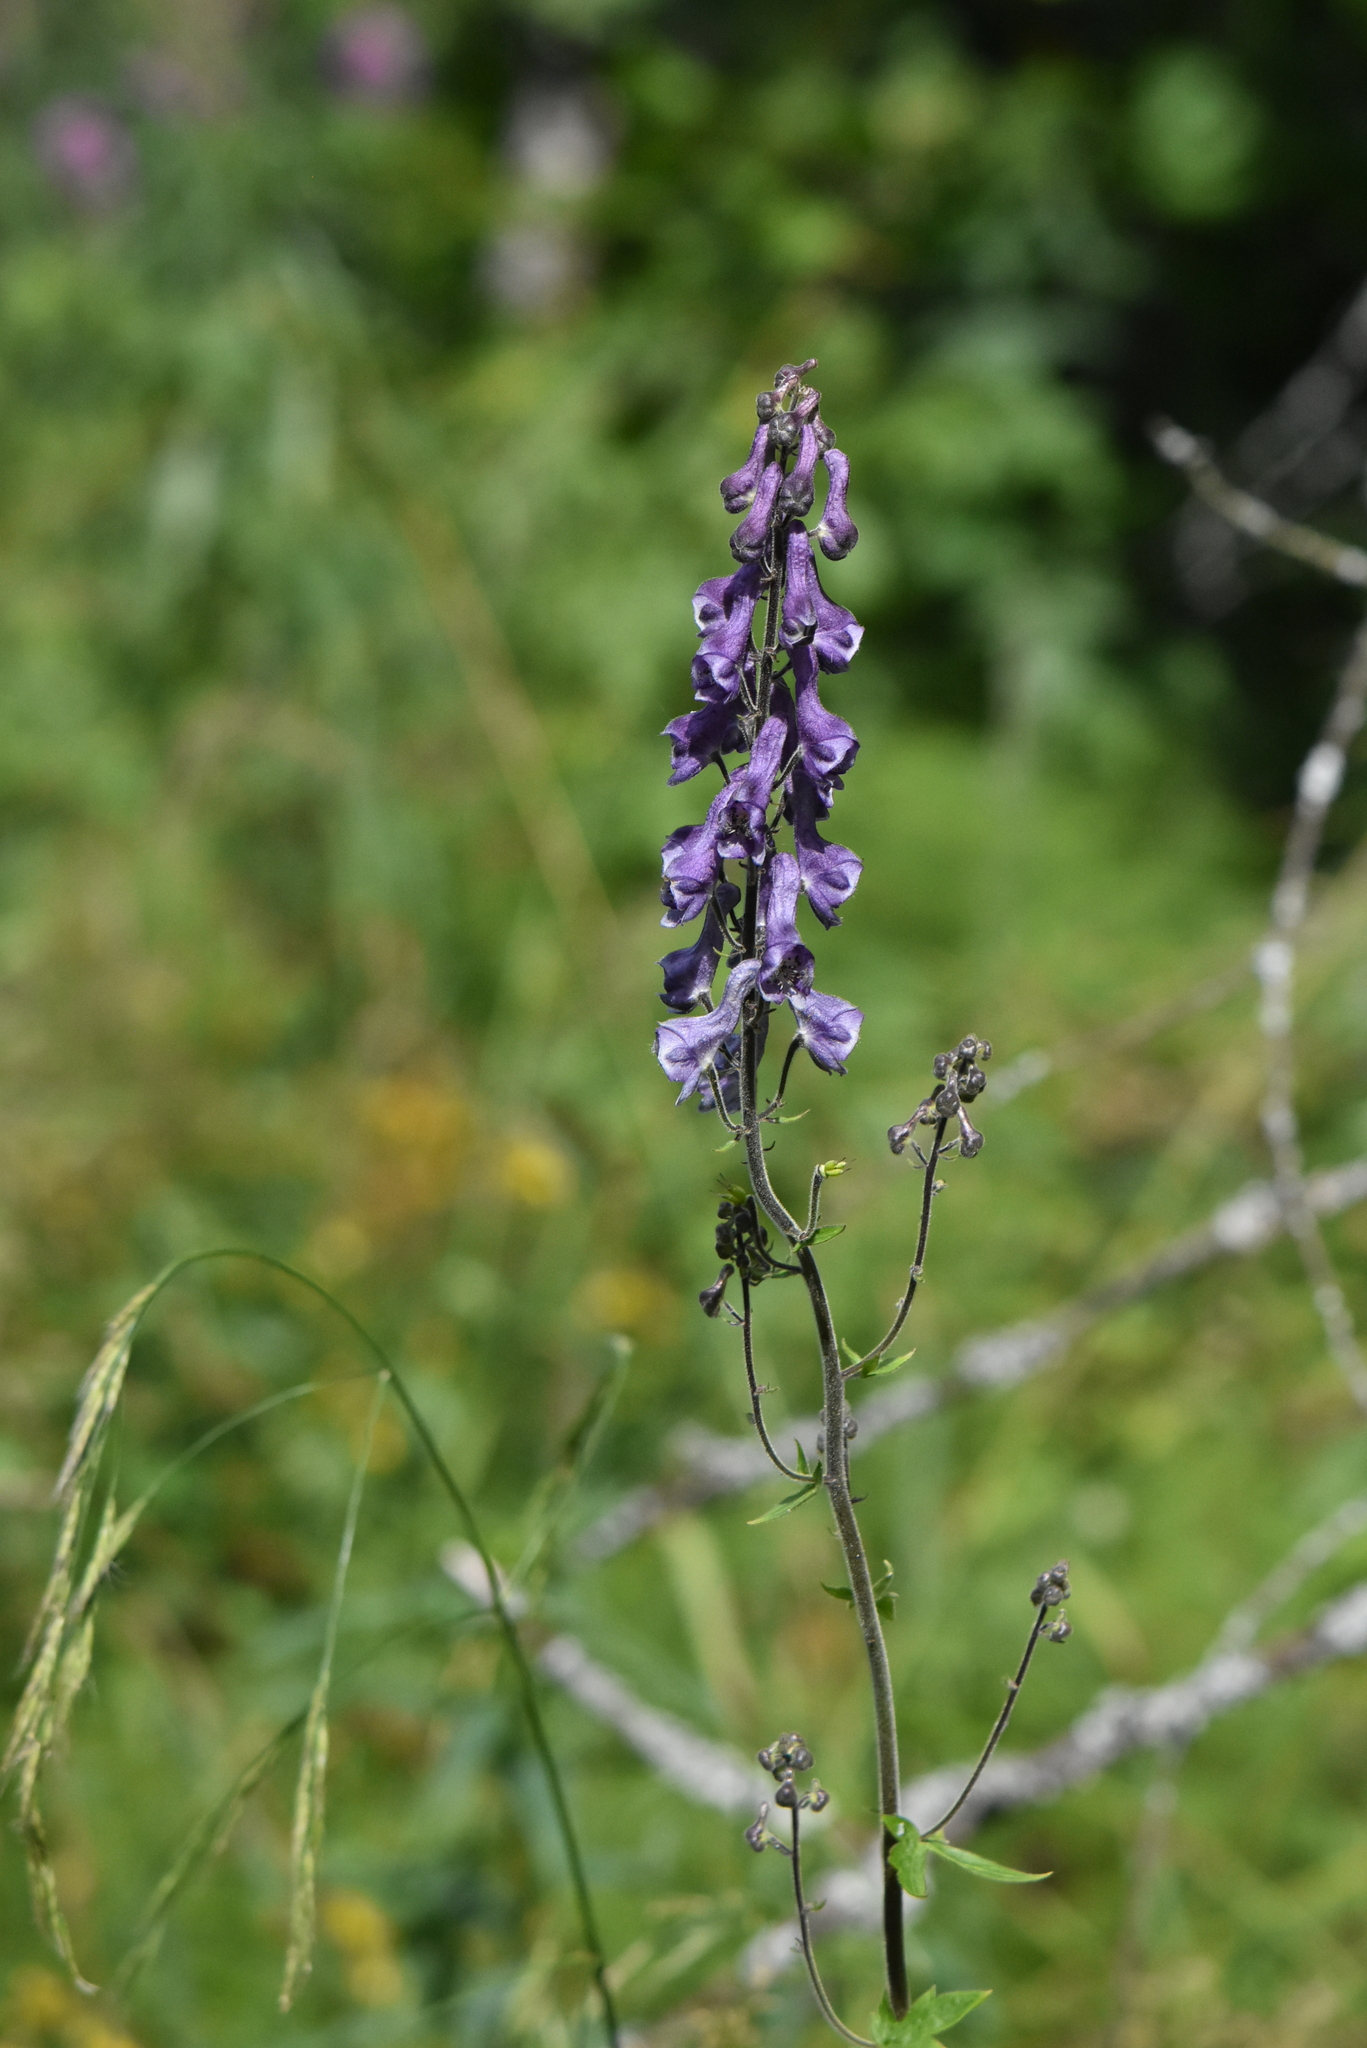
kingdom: Plantae
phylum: Tracheophyta
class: Magnoliopsida
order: Ranunculales
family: Ranunculaceae
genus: Aconitum
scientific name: Aconitum septentrionale
